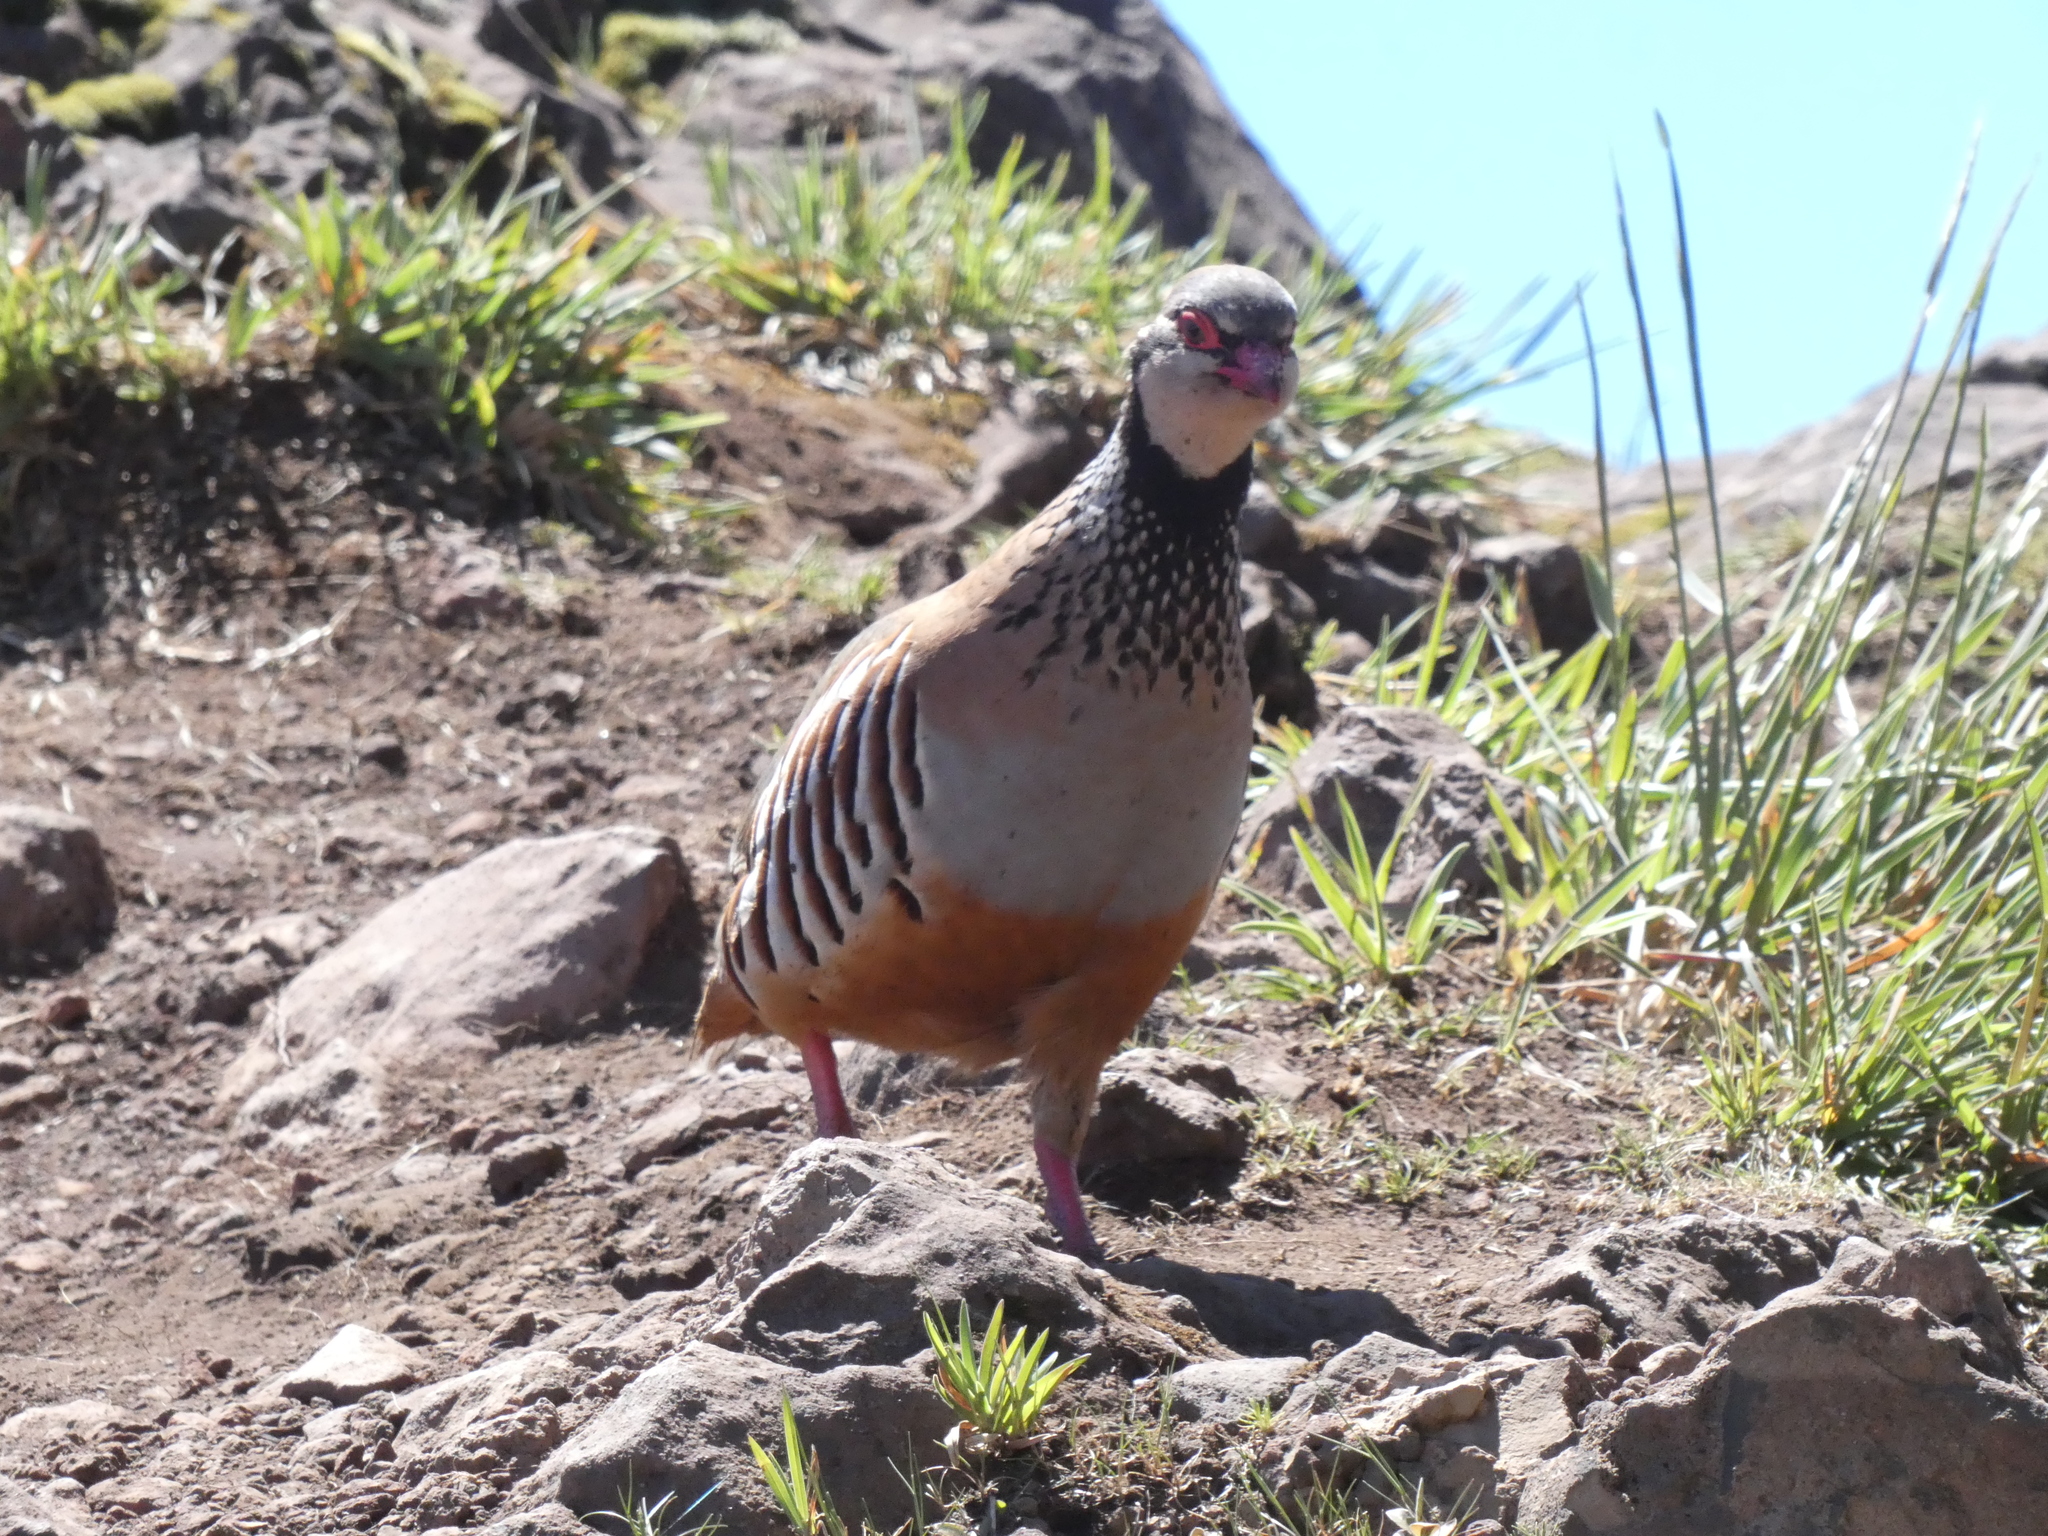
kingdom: Animalia
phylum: Chordata
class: Aves
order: Galliformes
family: Phasianidae
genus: Alectoris
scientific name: Alectoris rufa
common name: Red-legged partridge
